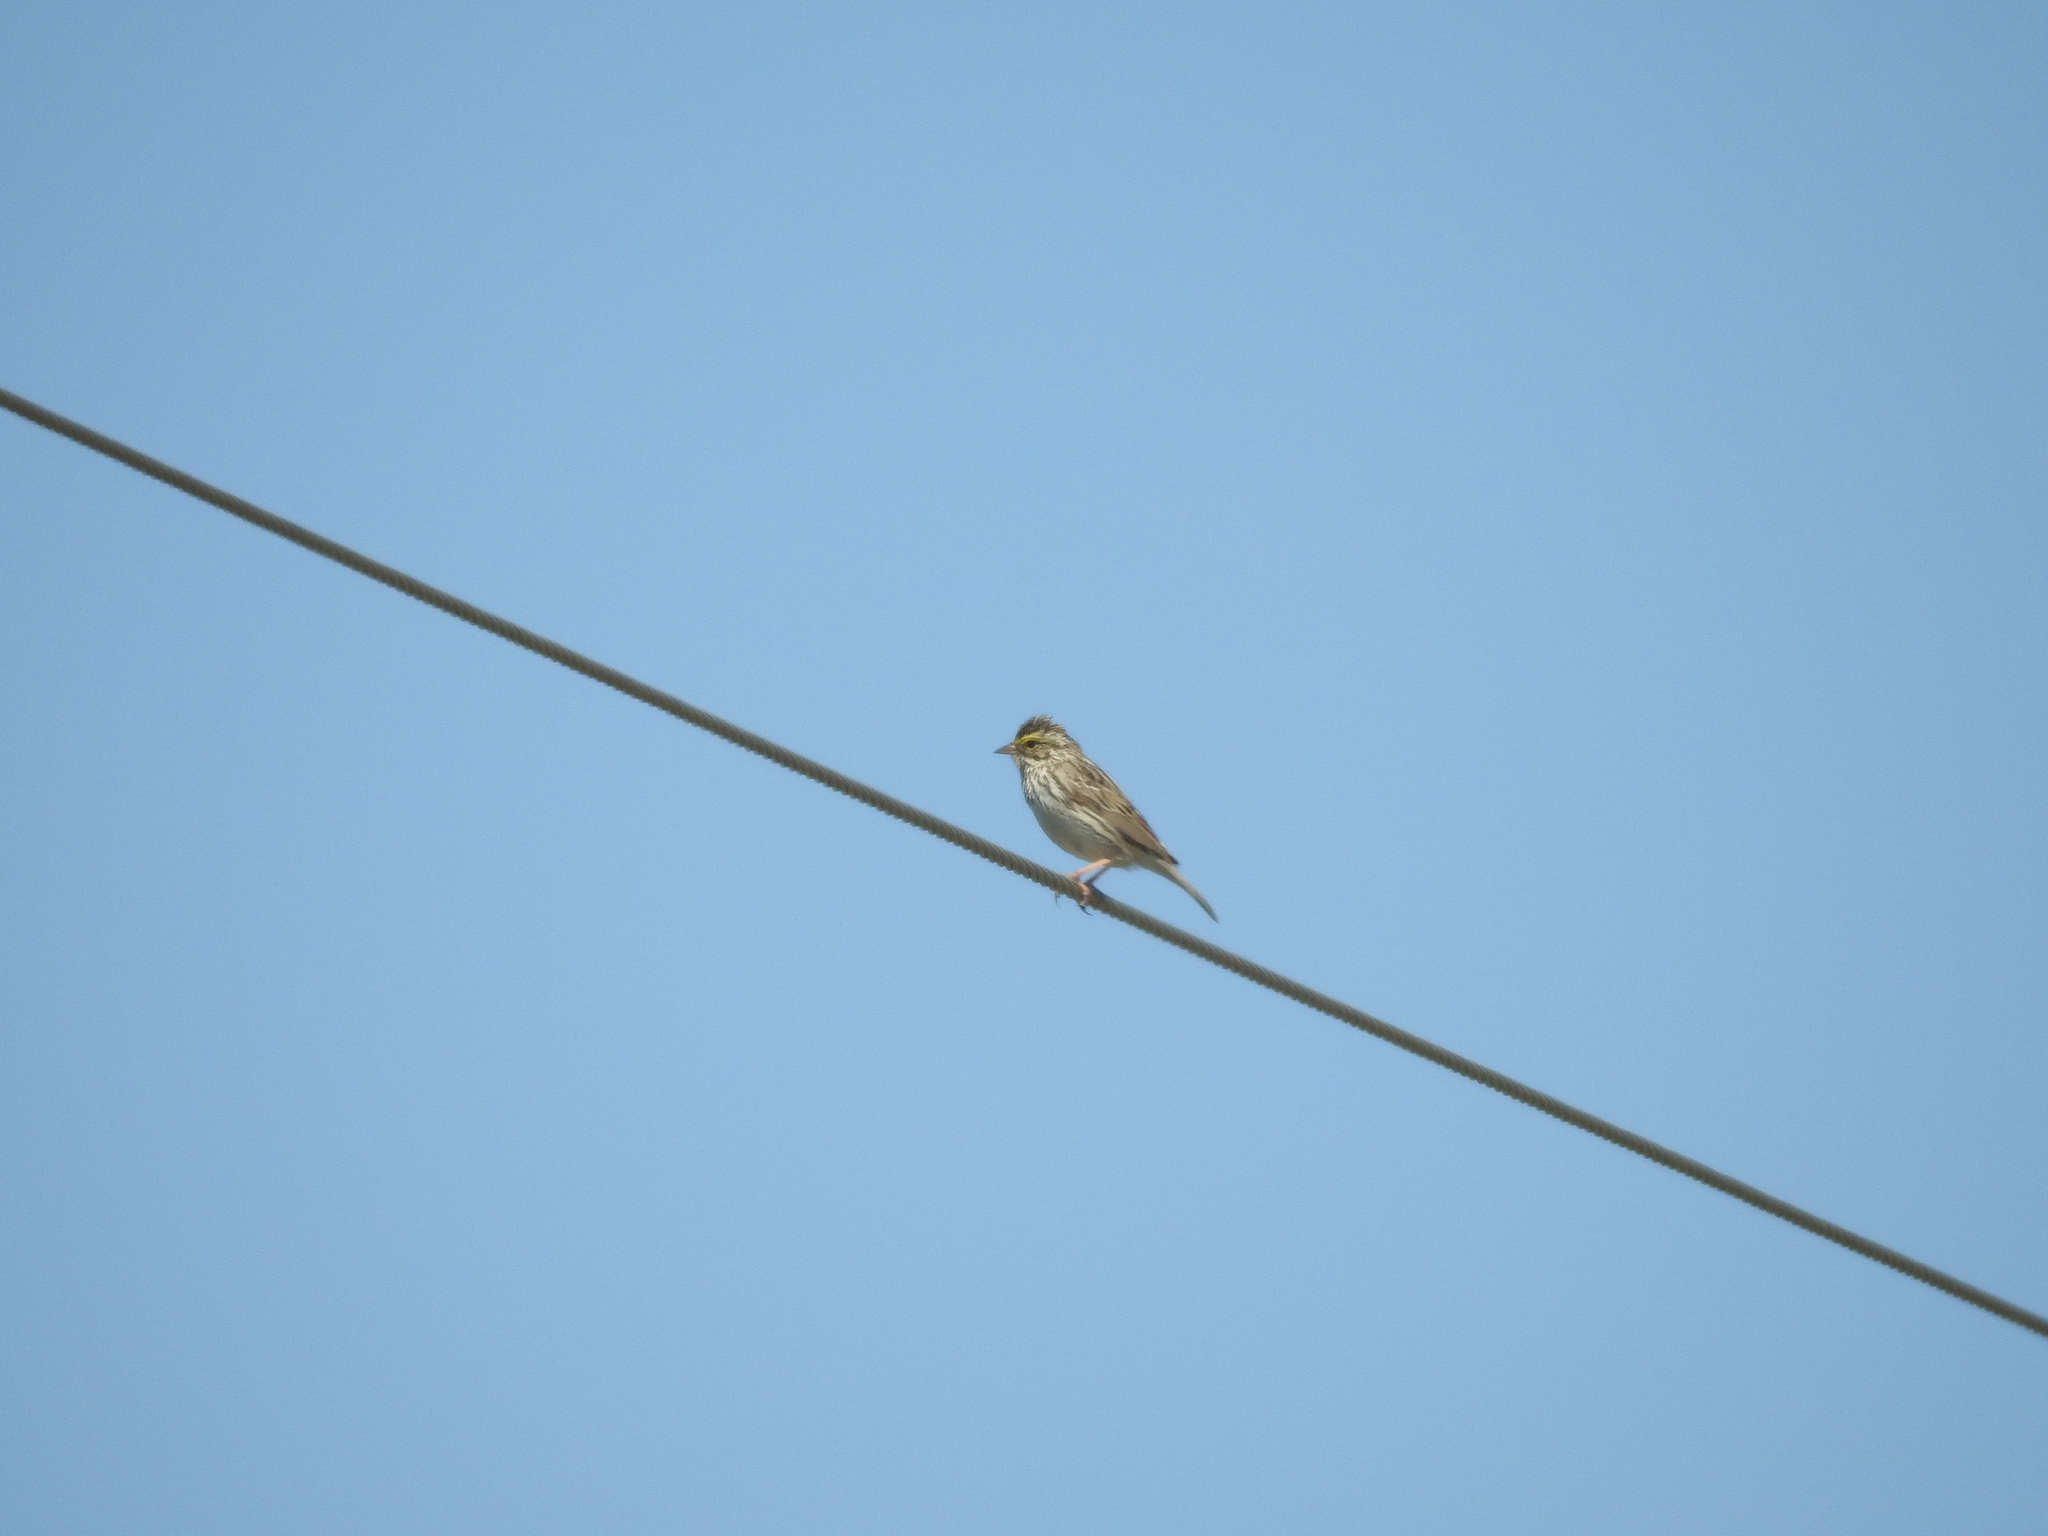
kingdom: Animalia
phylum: Chordata
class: Aves
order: Passeriformes
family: Passerellidae
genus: Passerculus
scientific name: Passerculus sandwichensis
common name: Savannah sparrow
